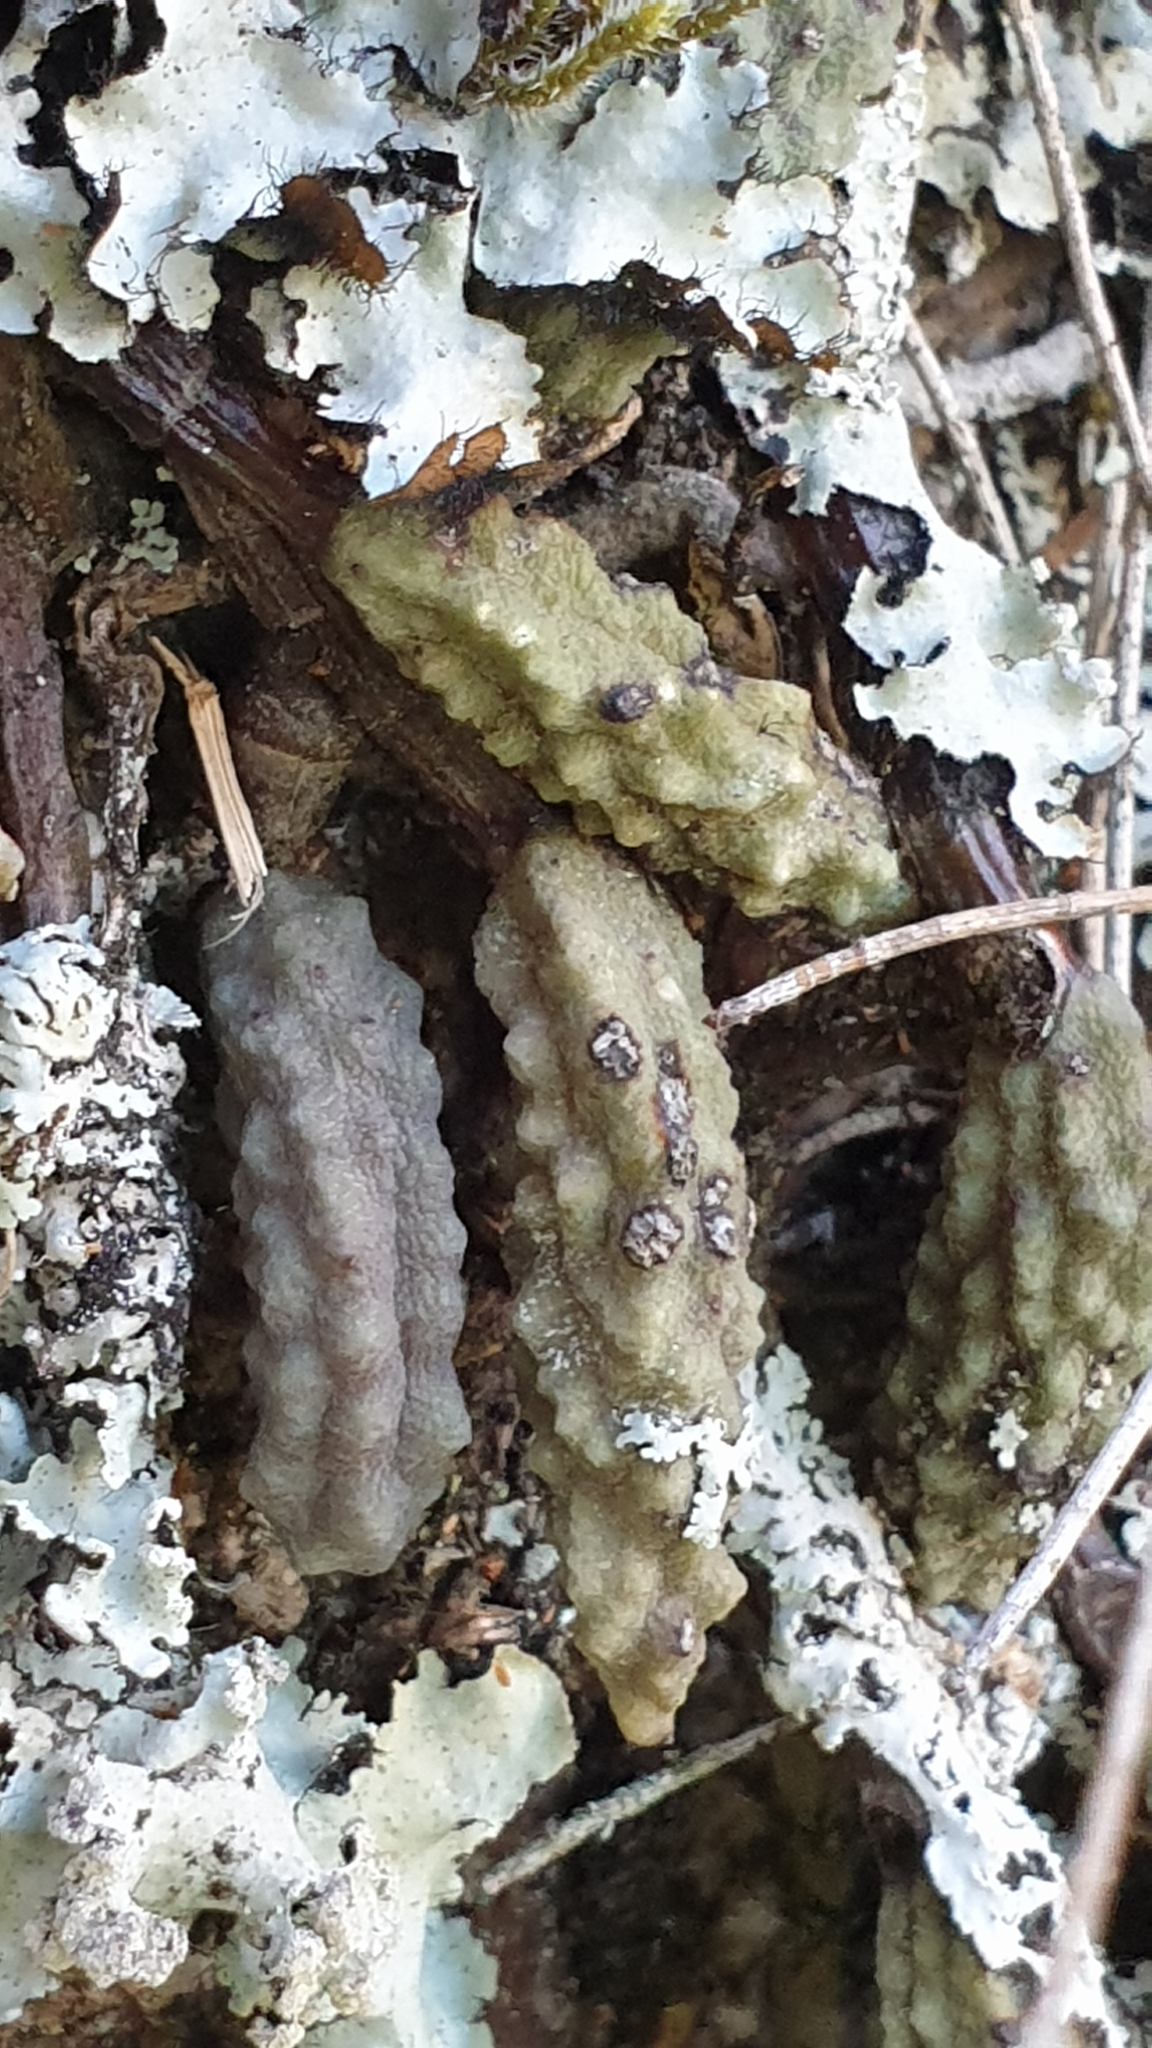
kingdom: Plantae
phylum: Tracheophyta
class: Liliopsida
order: Asparagales
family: Orchidaceae
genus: Dendrobium
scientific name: Dendrobium cucumerinum
